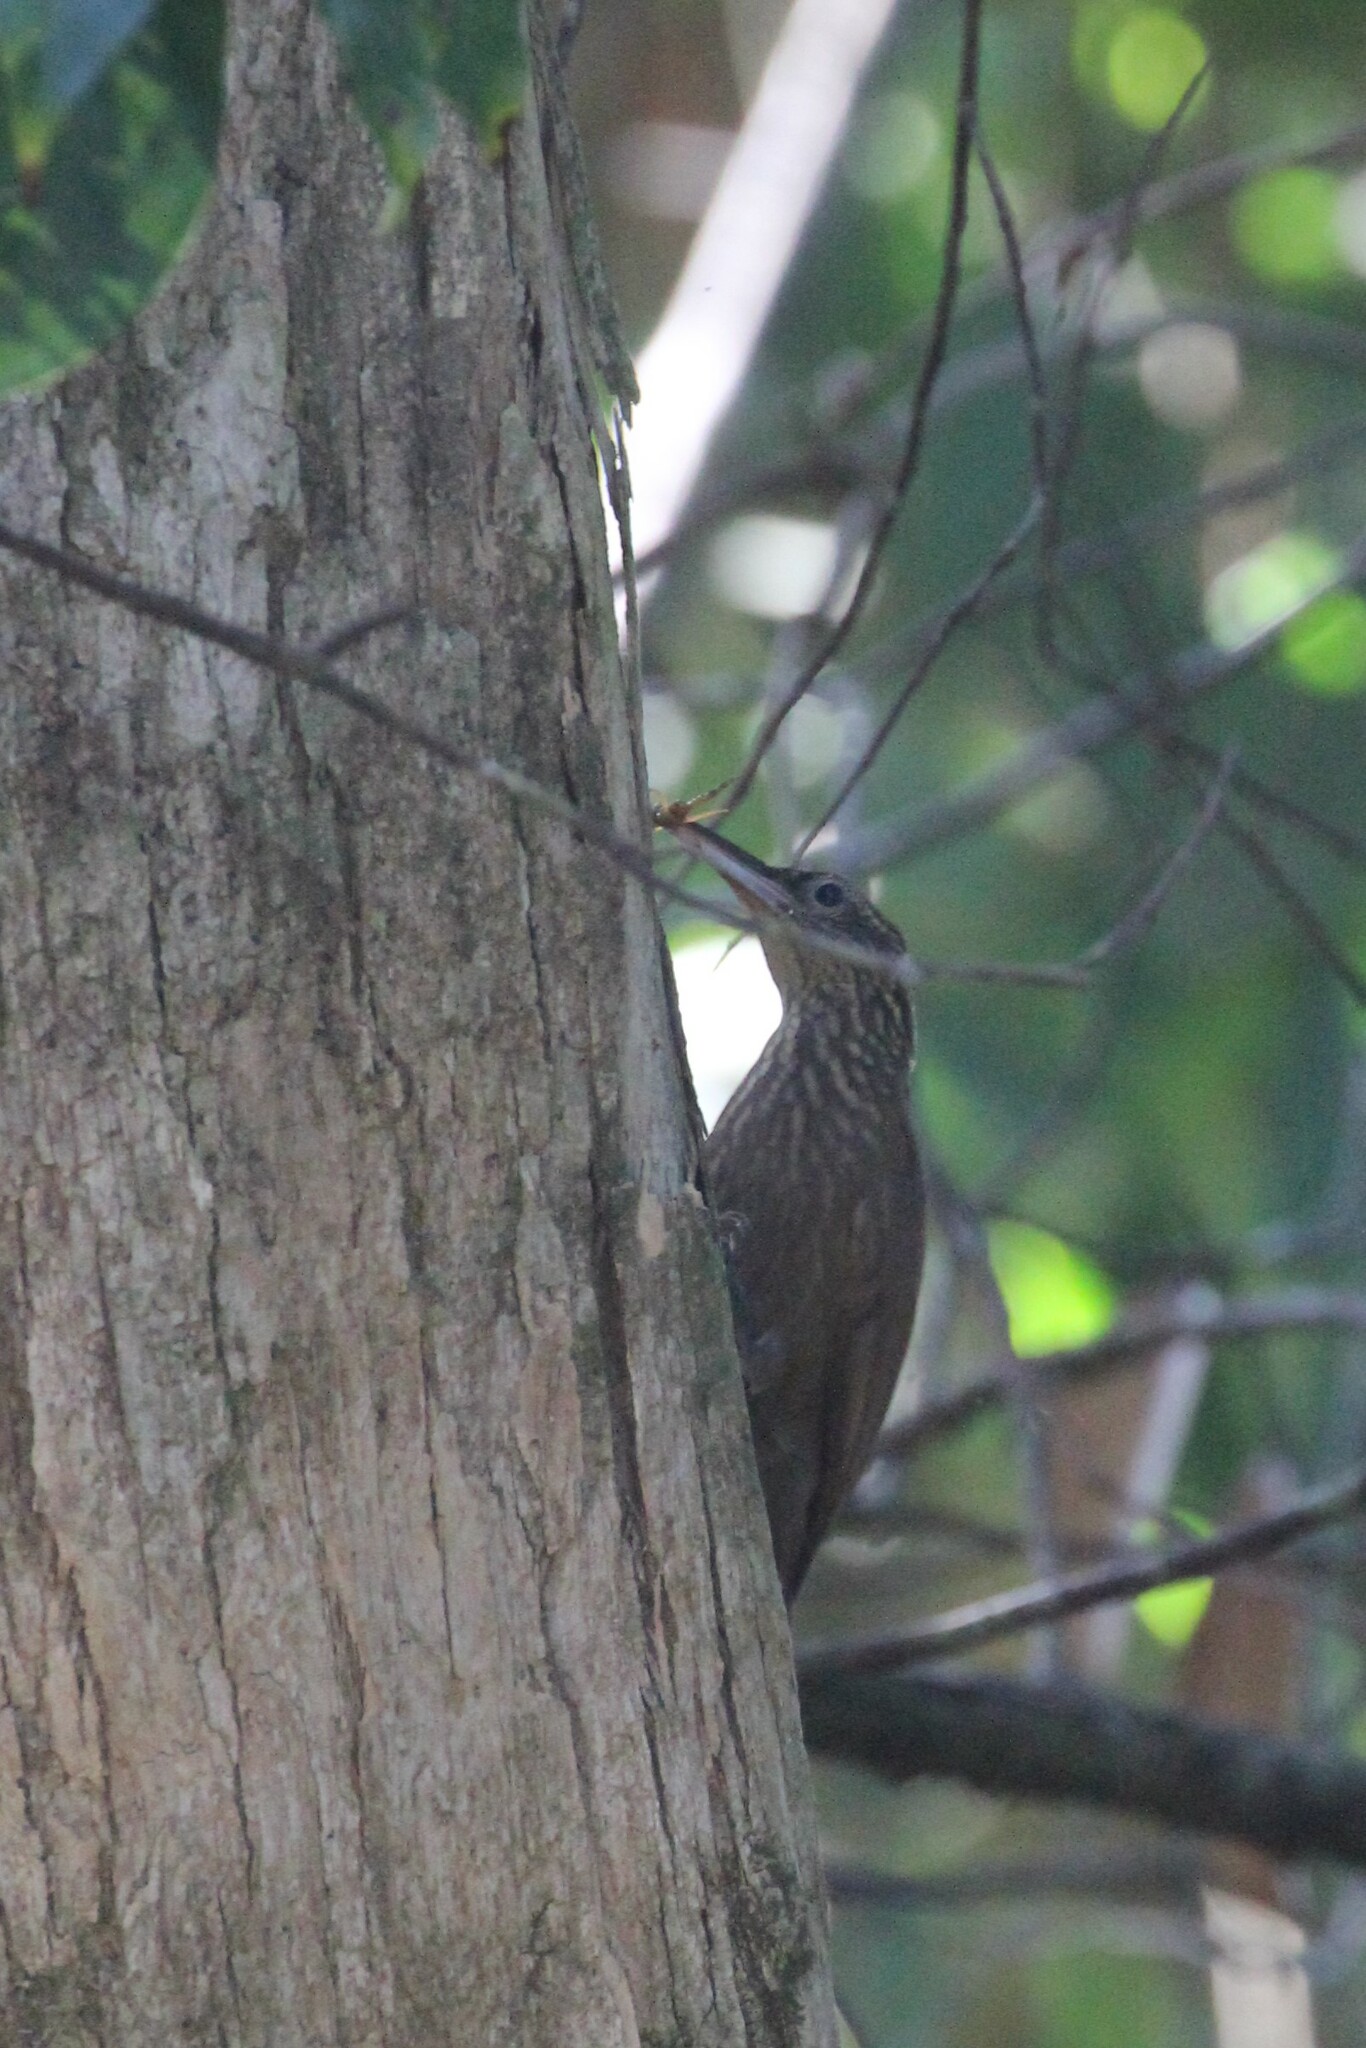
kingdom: Animalia
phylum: Chordata
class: Aves
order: Passeriformes
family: Furnariidae
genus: Xiphorhynchus
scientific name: Xiphorhynchus susurrans
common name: Cocoa woodcreeper
